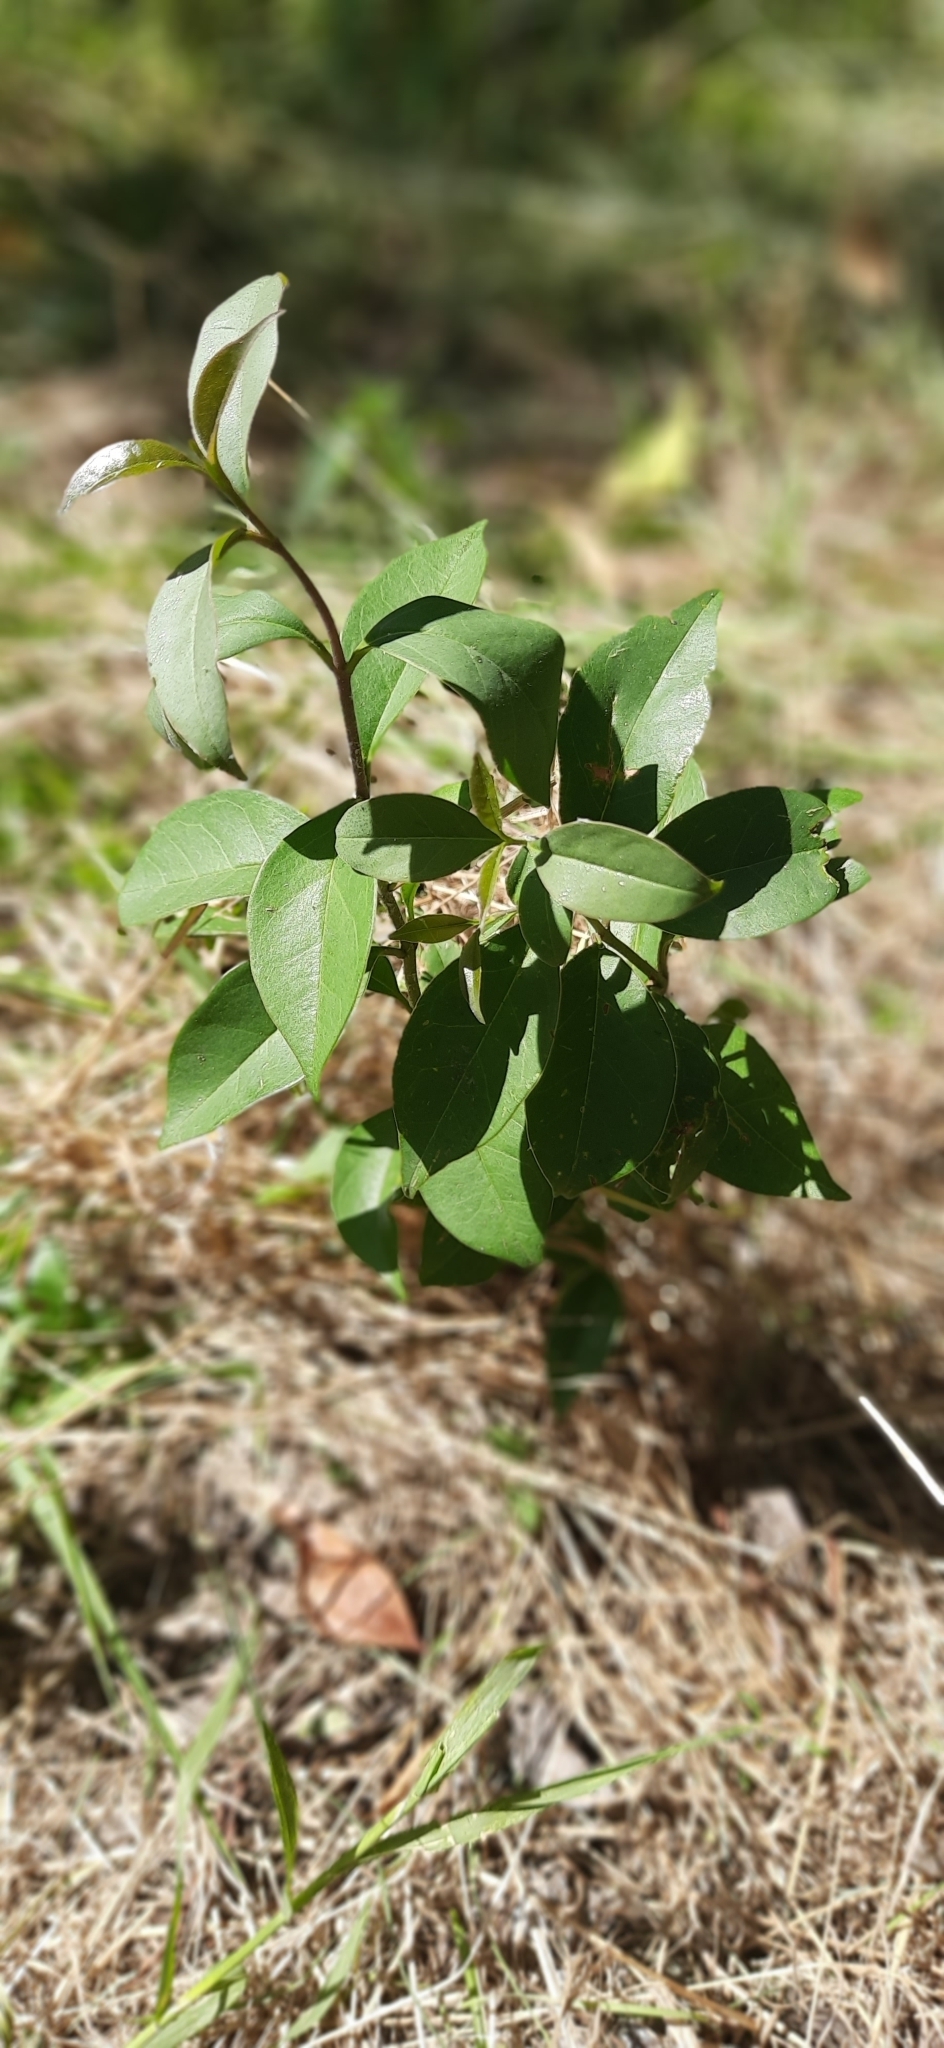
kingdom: Plantae
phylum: Tracheophyta
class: Magnoliopsida
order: Dipsacales
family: Viburnaceae
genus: Viburnum
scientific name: Viburnum tinus
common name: Laurustinus
